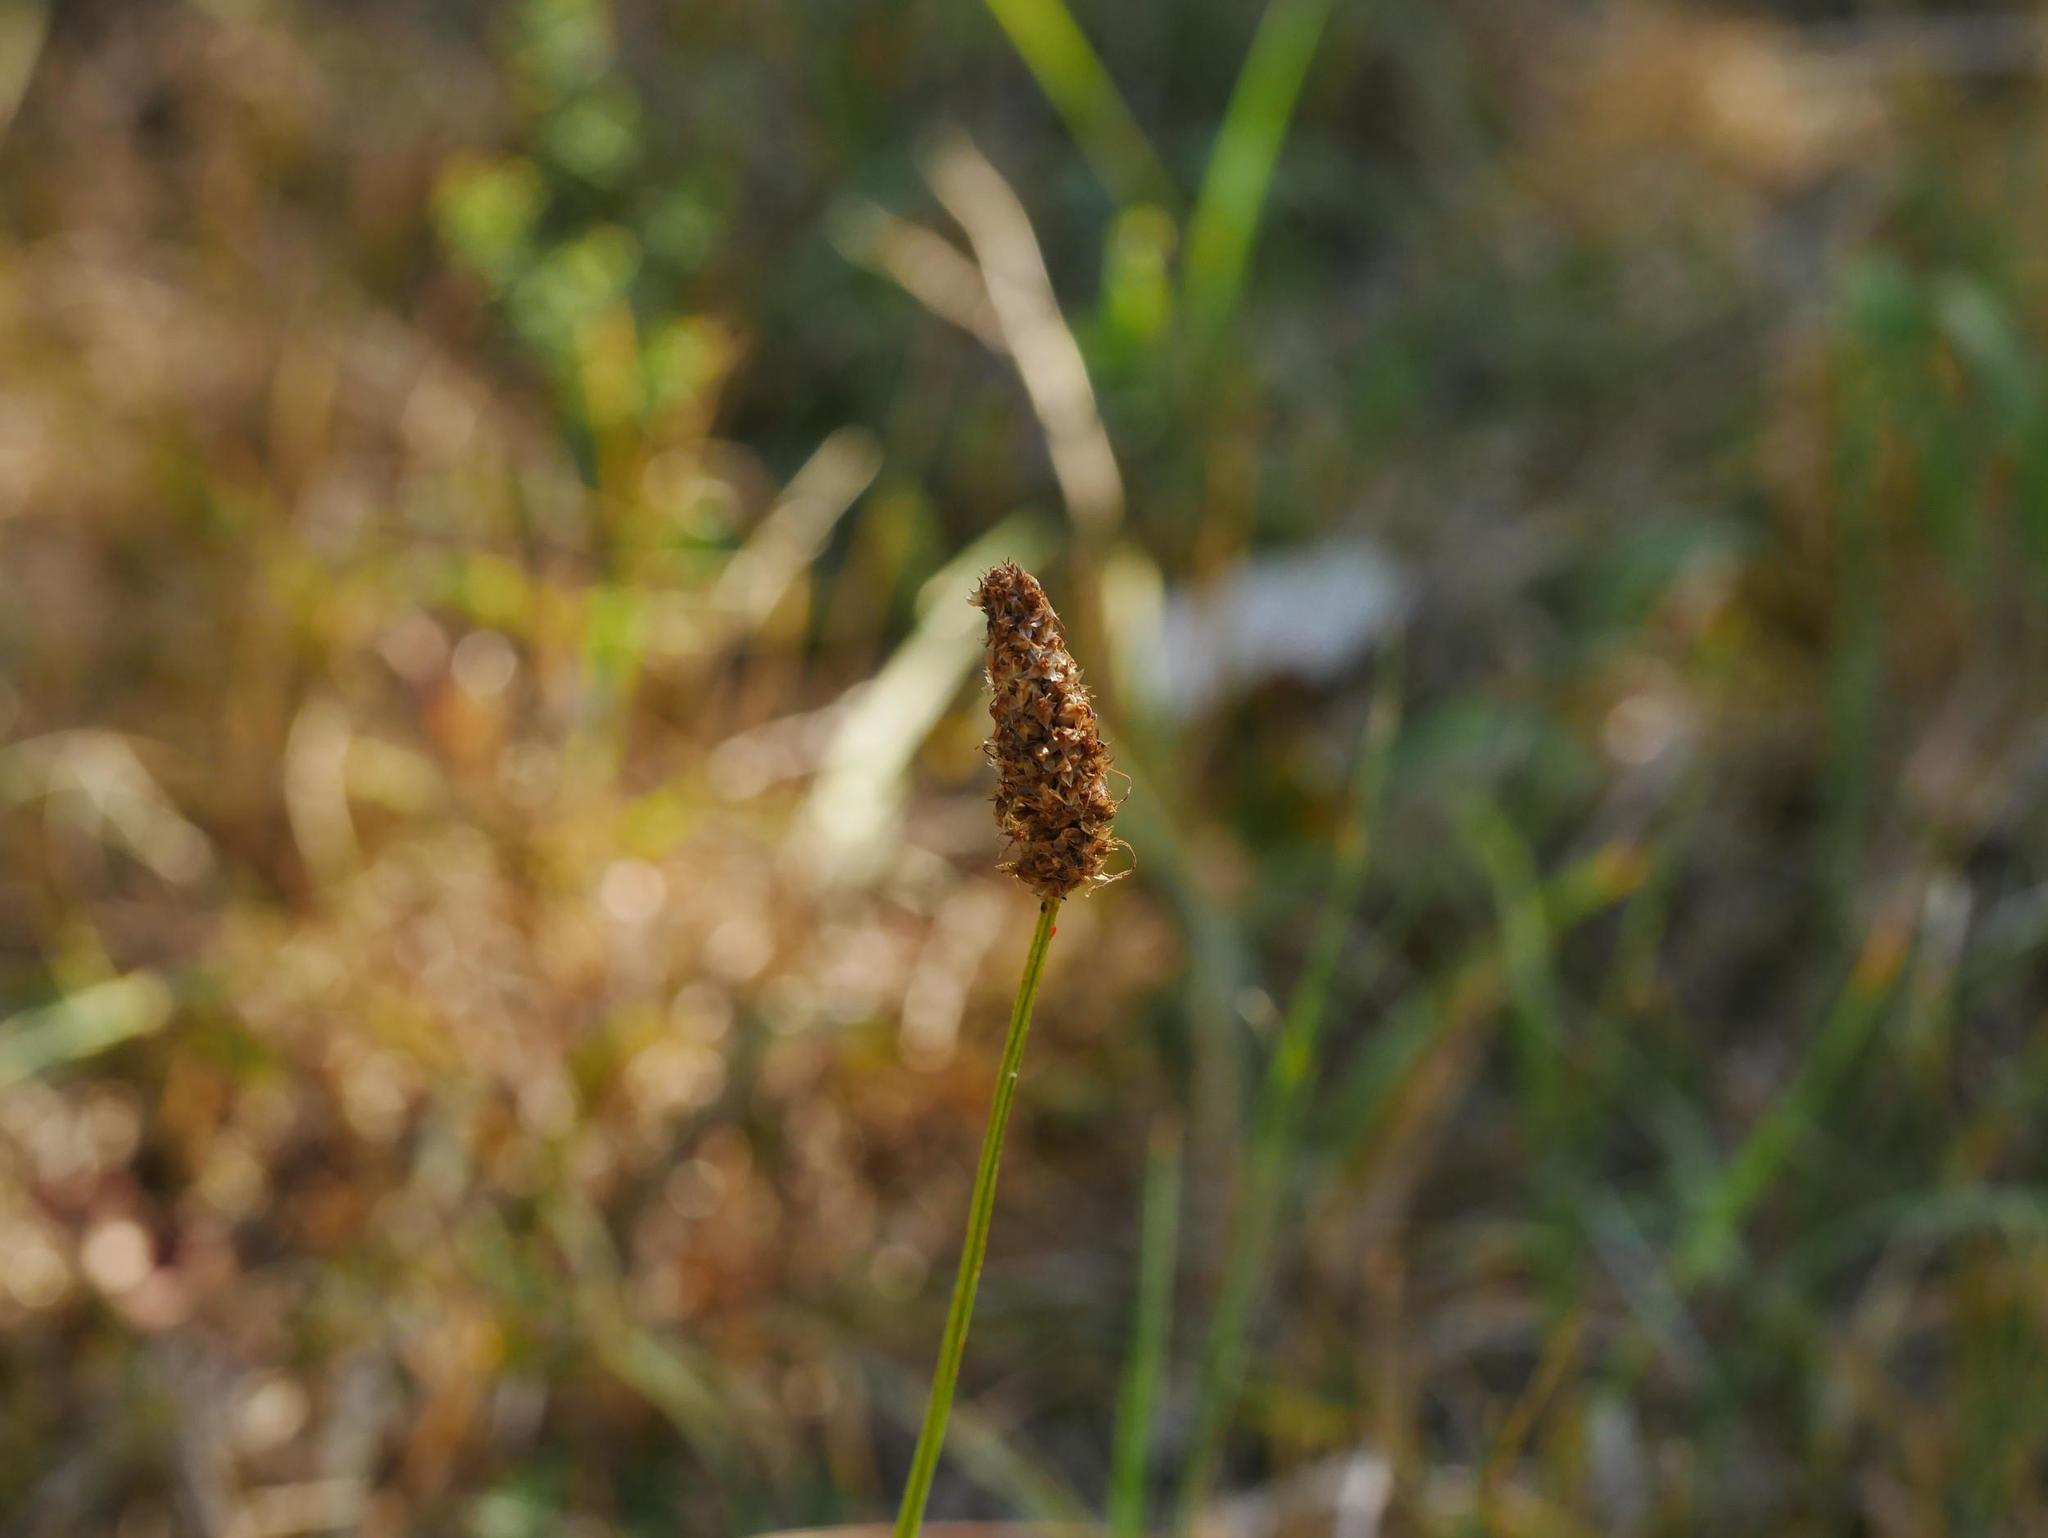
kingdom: Plantae
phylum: Tracheophyta
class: Magnoliopsida
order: Lamiales
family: Plantaginaceae
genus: Plantago
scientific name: Plantago lanceolata
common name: Ribwort plantain
